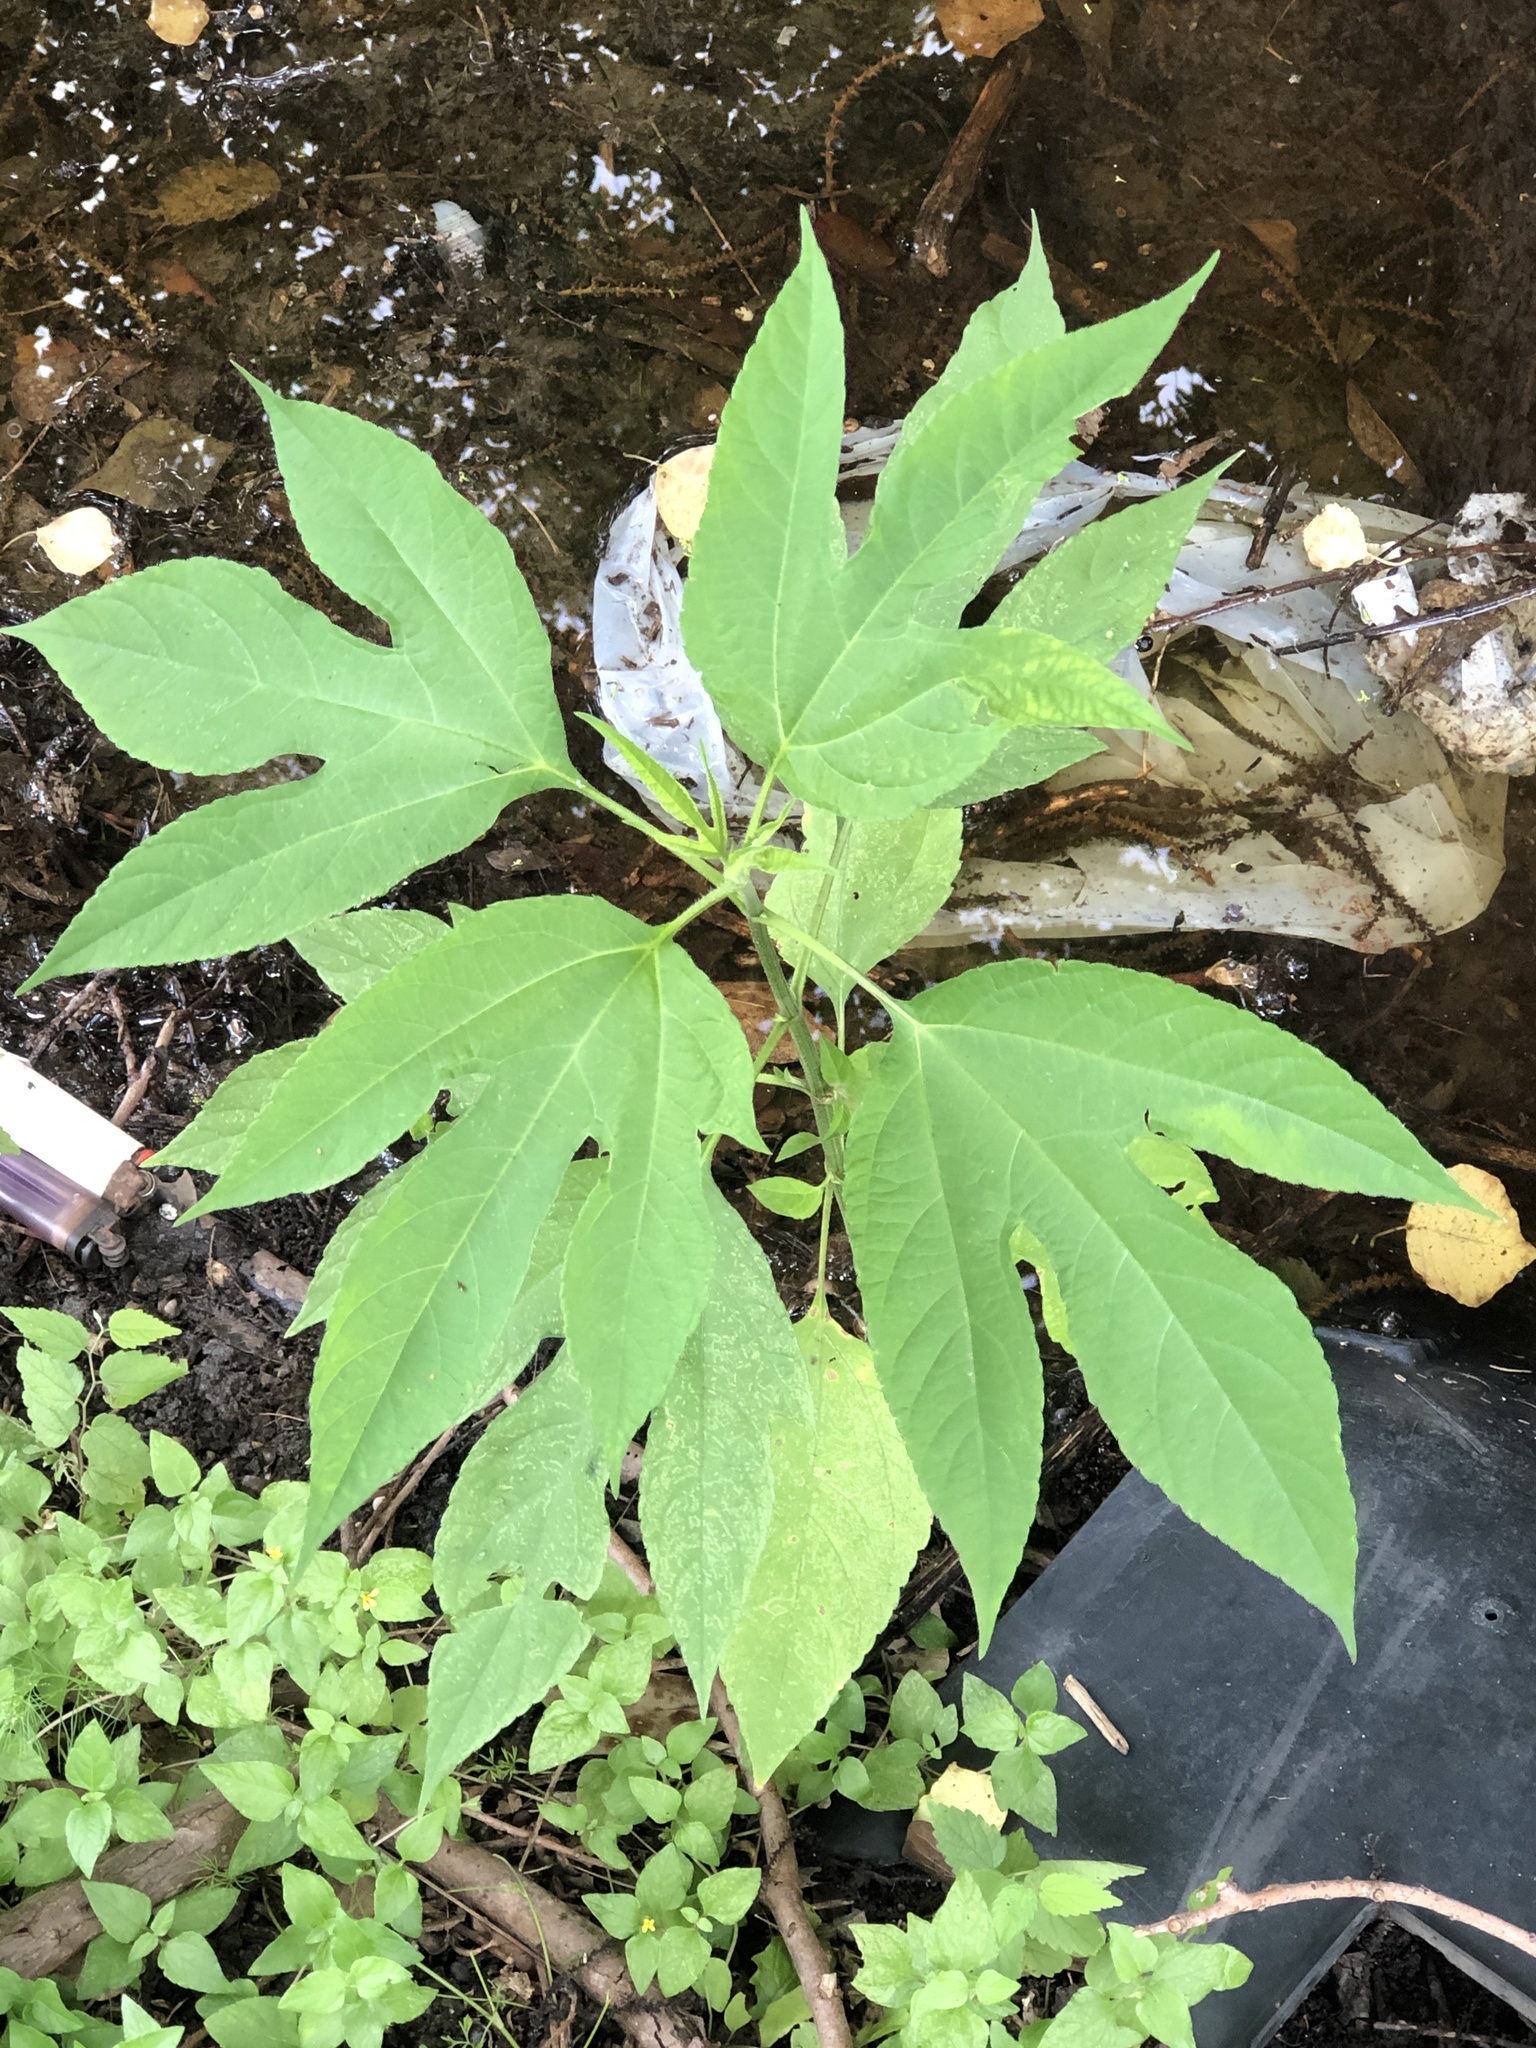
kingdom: Plantae
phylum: Tracheophyta
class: Magnoliopsida
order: Asterales
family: Asteraceae
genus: Ambrosia
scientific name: Ambrosia trifida
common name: Giant ragweed
